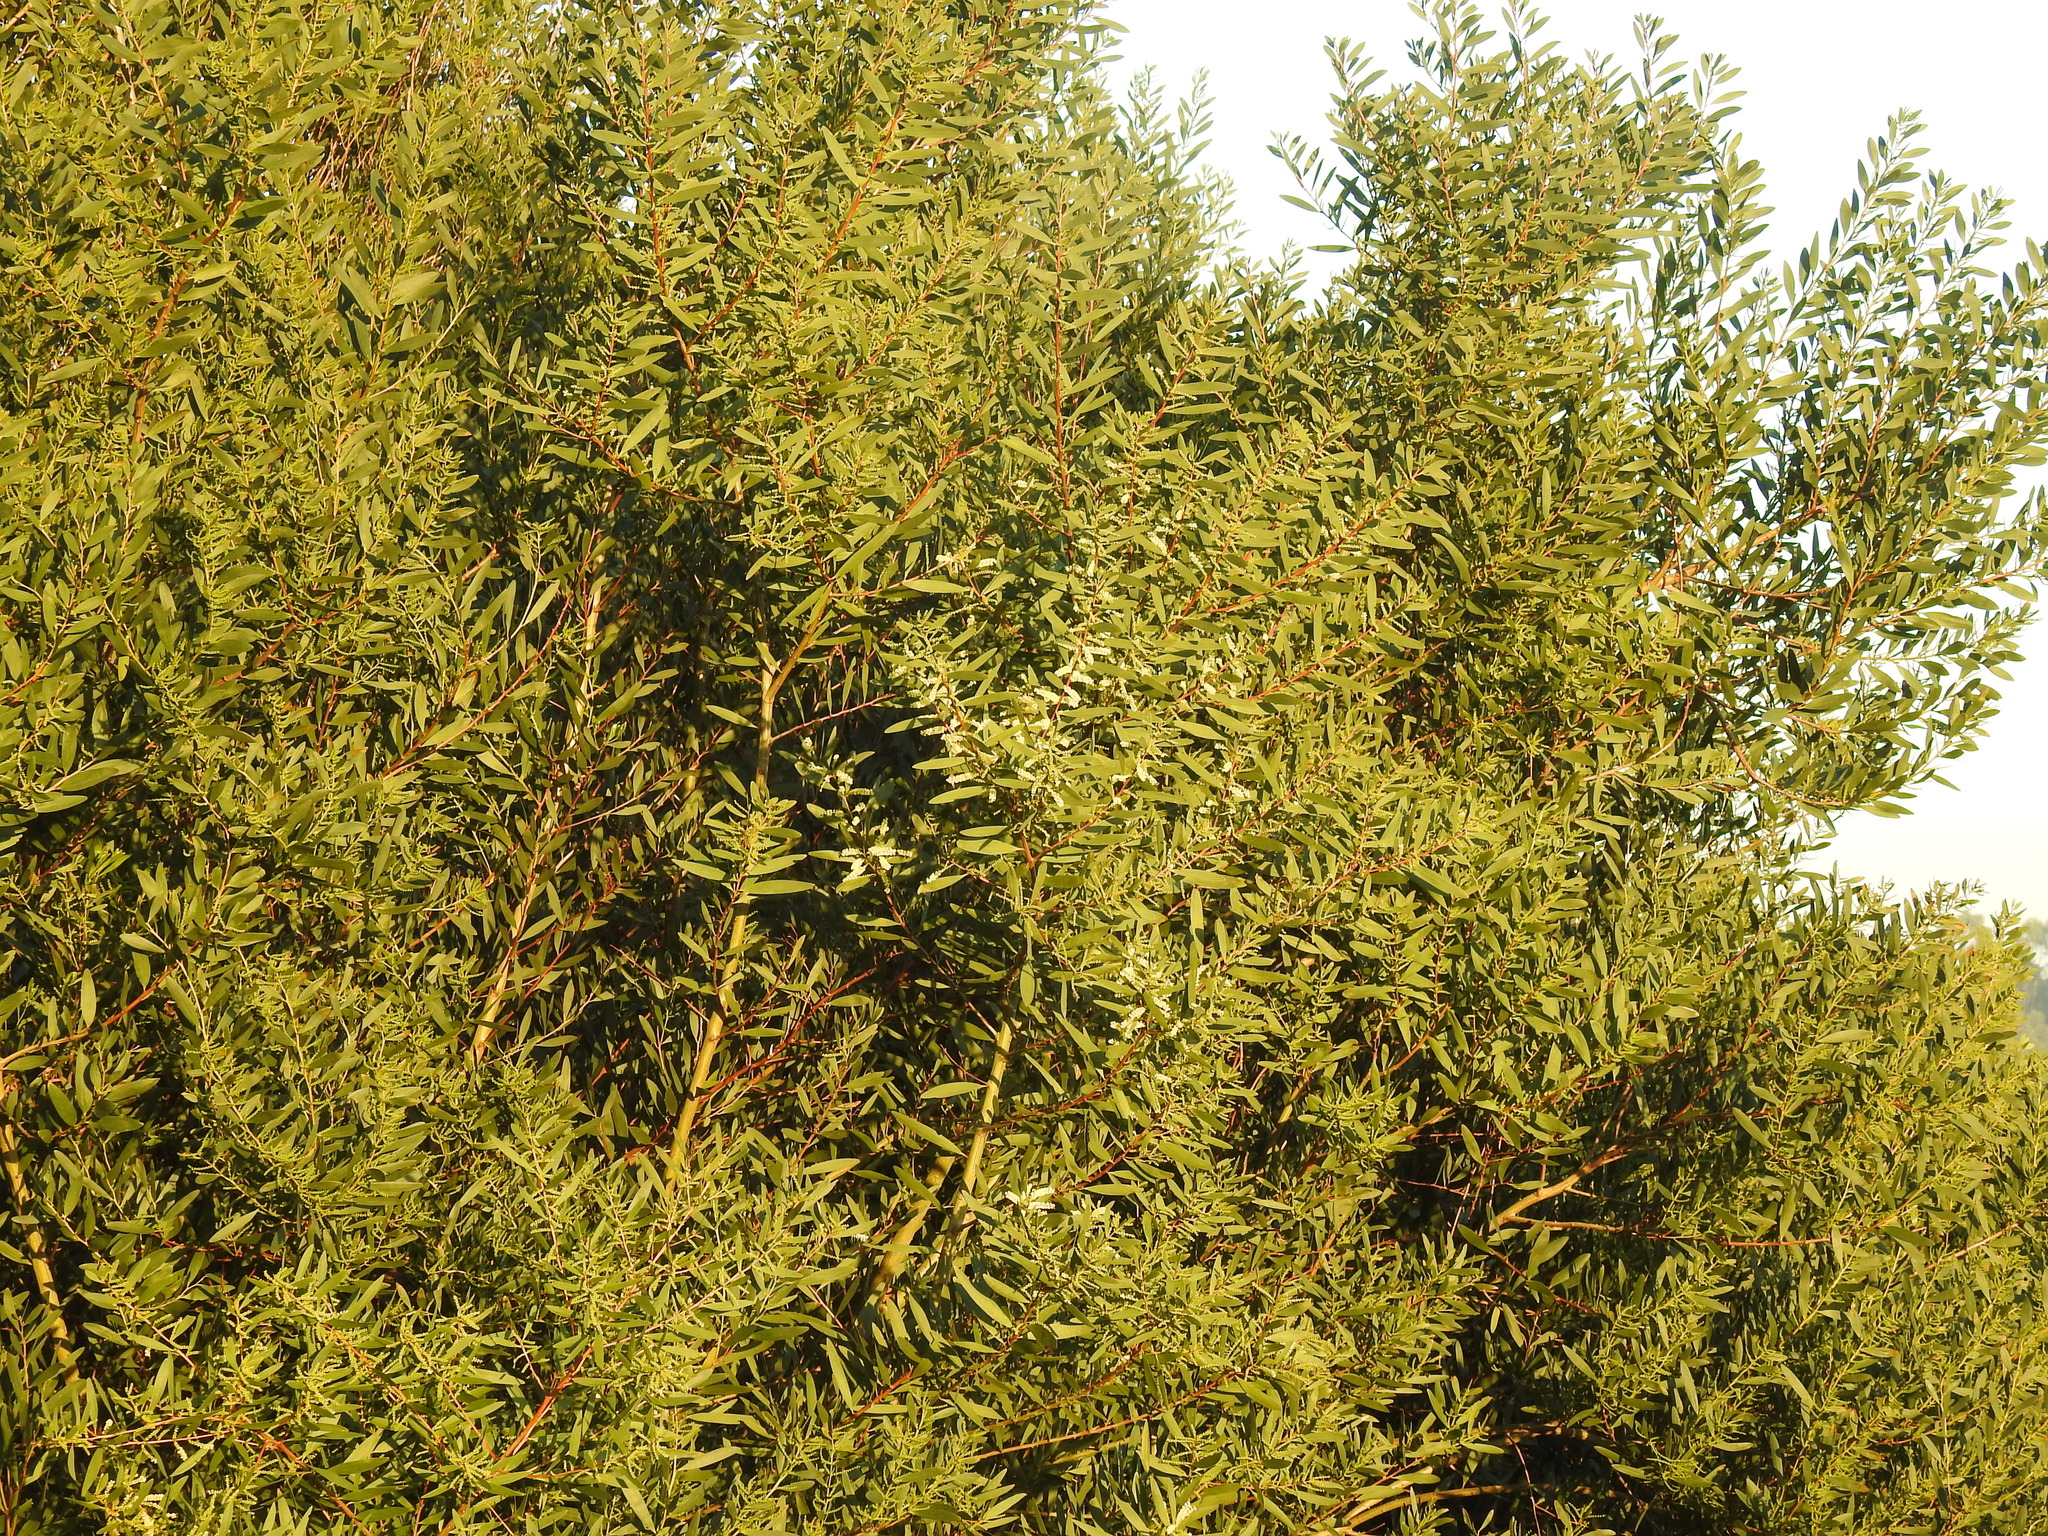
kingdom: Plantae
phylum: Tracheophyta
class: Magnoliopsida
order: Fabales
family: Fabaceae
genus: Acacia
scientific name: Acacia longifolia
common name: Sydney golden wattle
